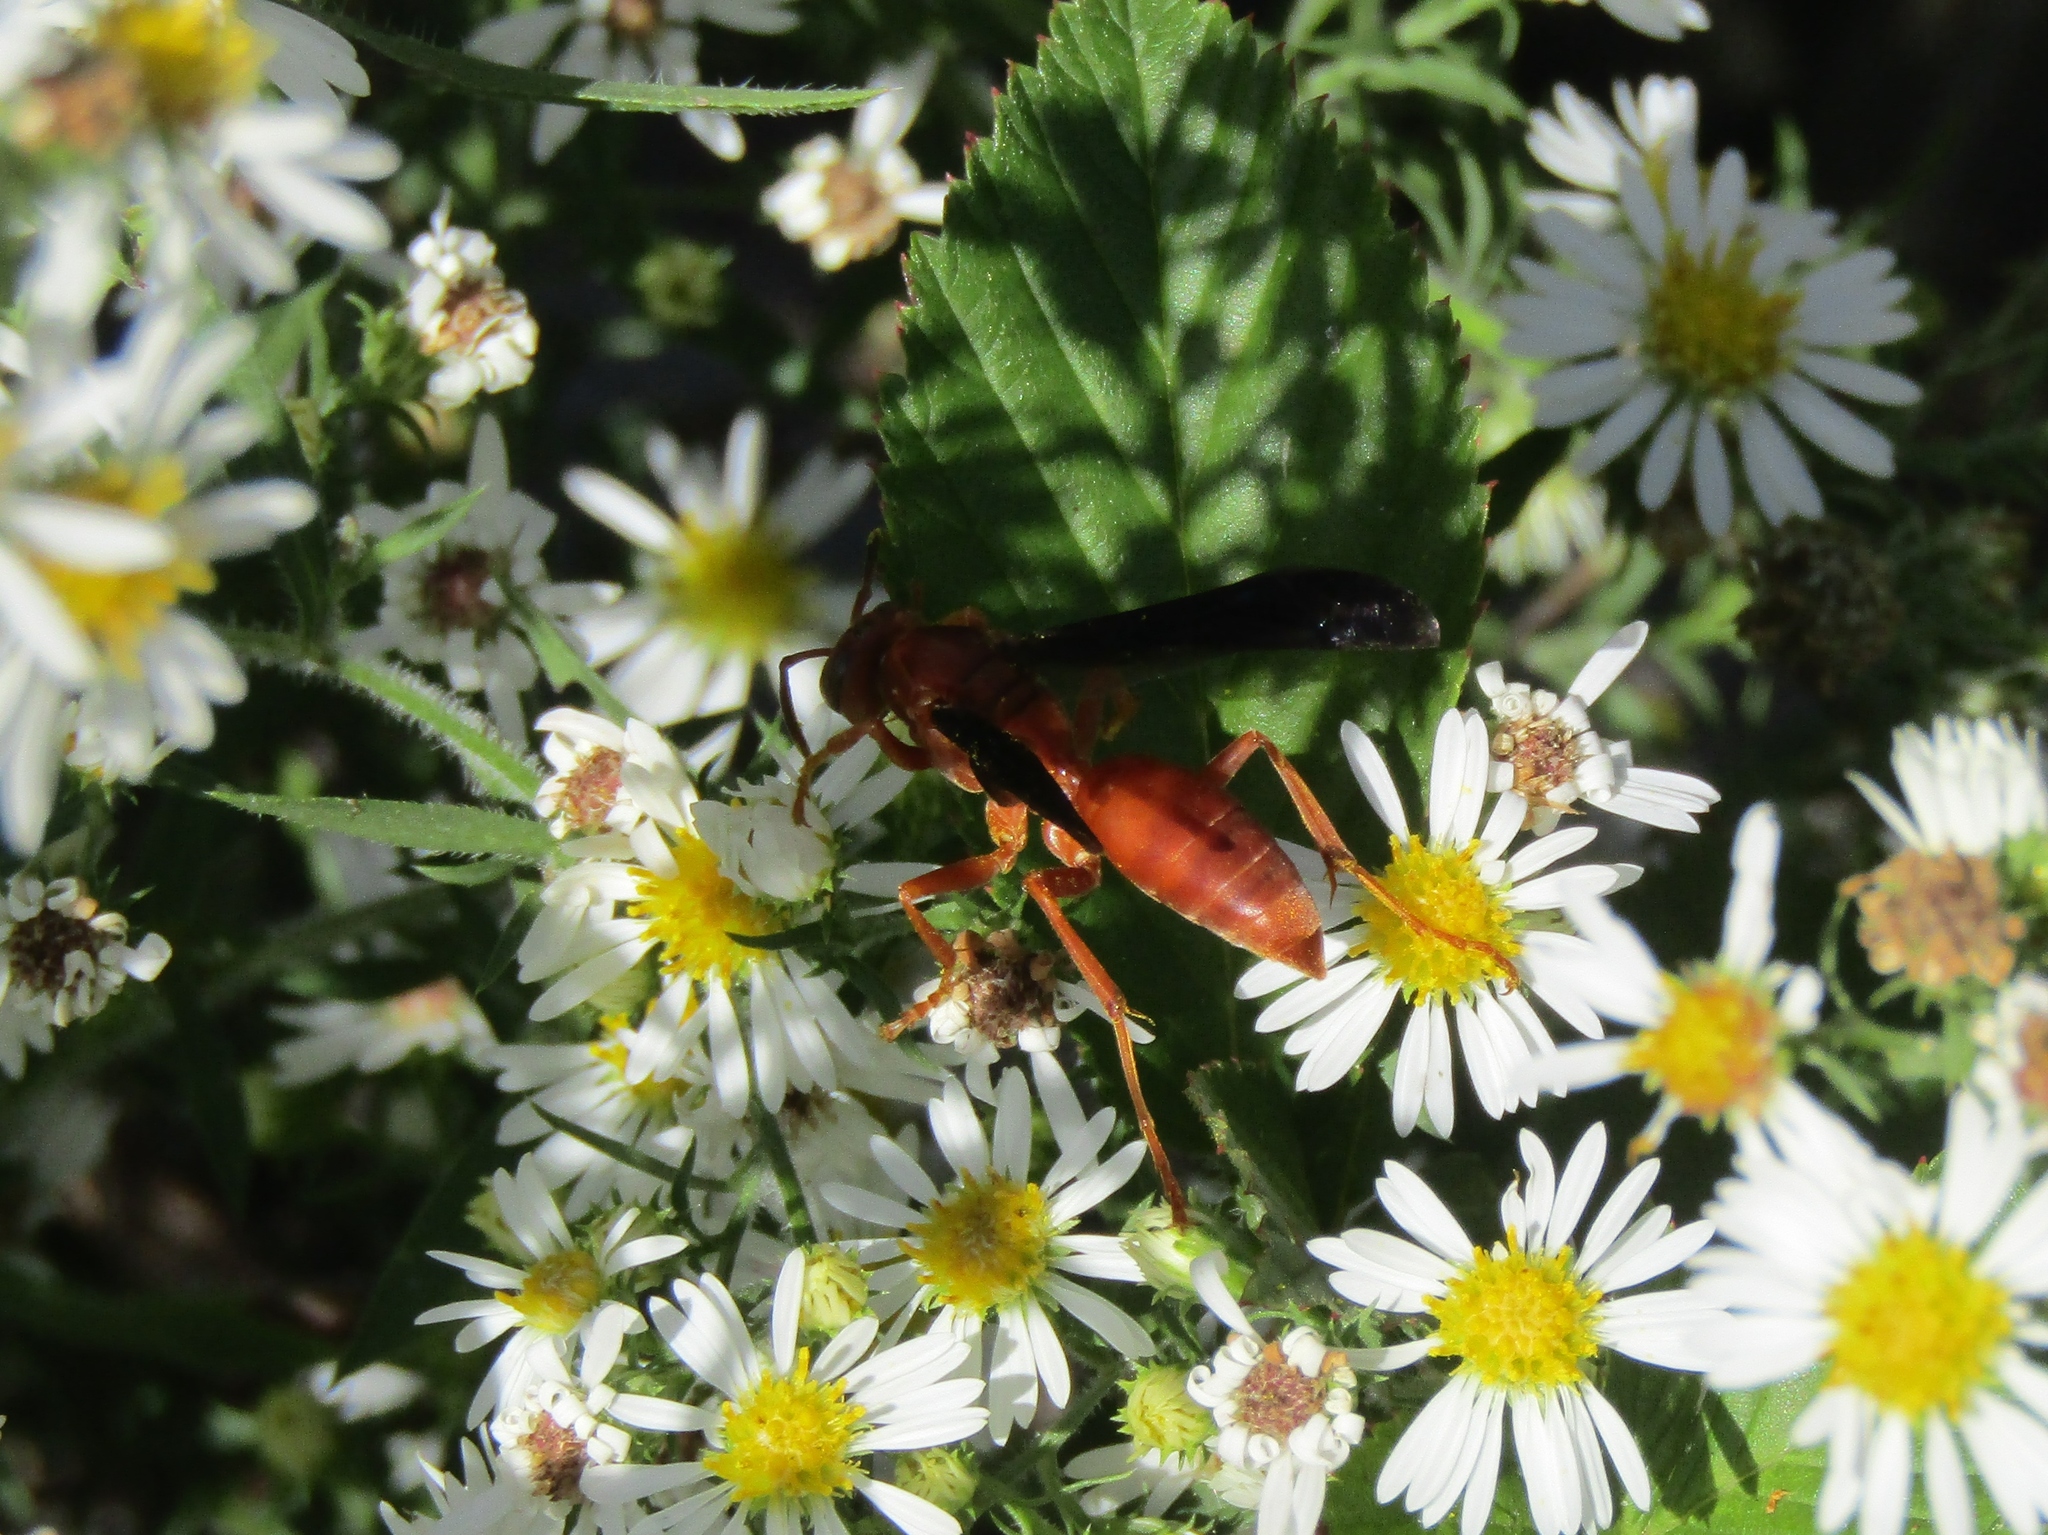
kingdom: Animalia
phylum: Arthropoda
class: Insecta
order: Hymenoptera
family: Eumenidae
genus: Polistes
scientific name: Polistes
